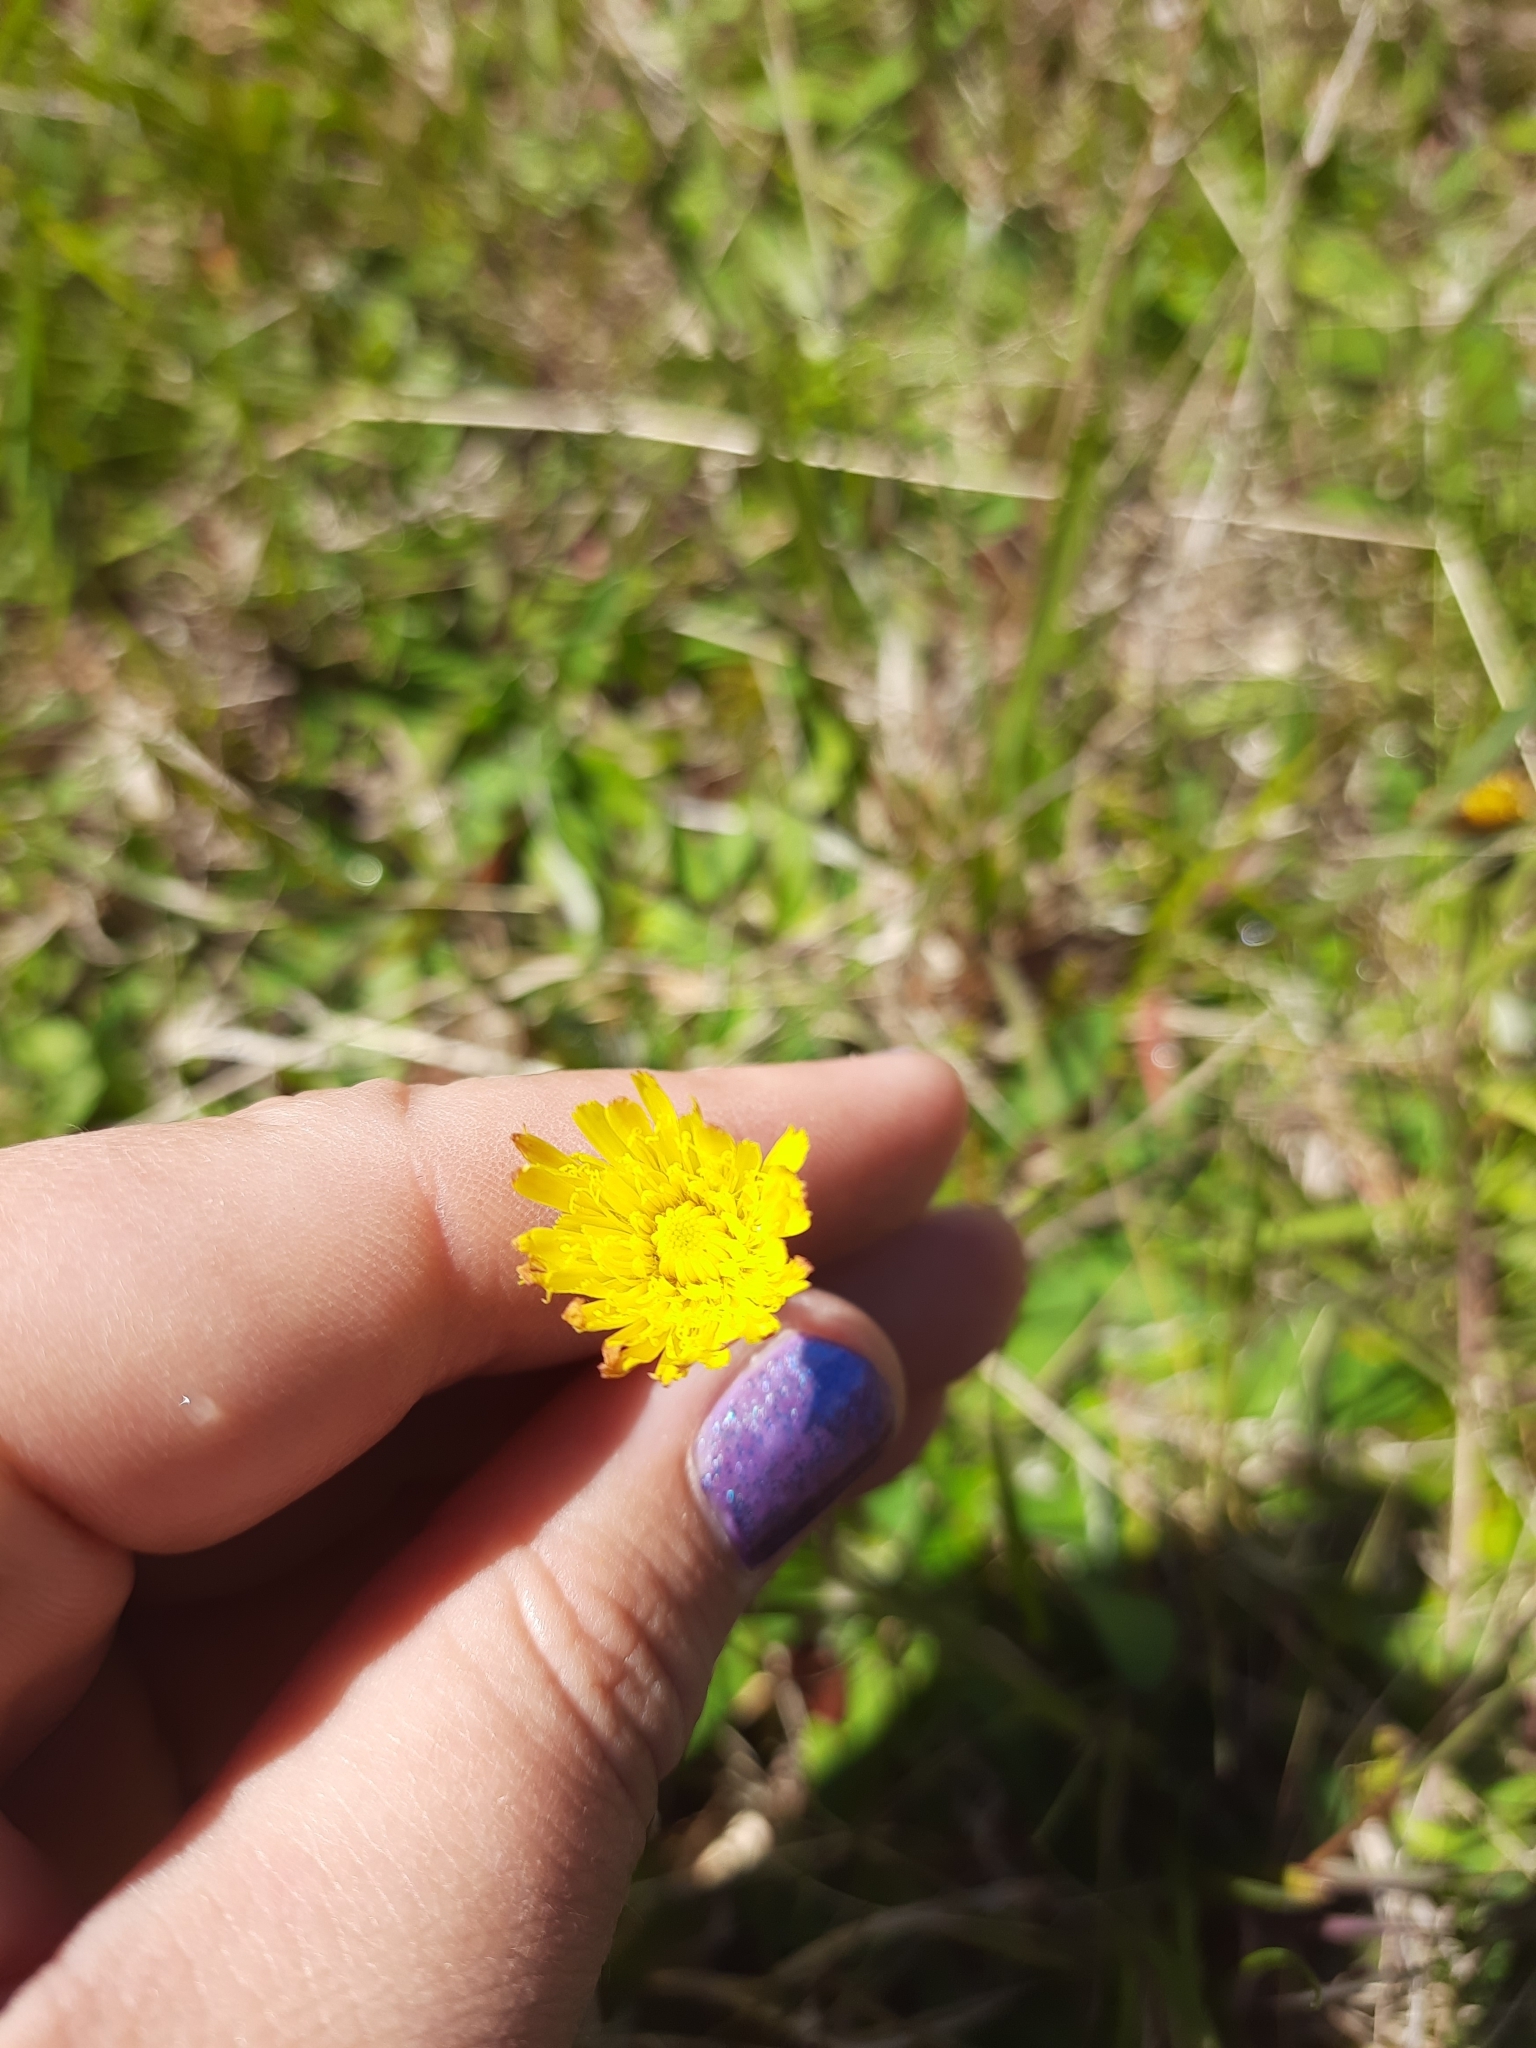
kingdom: Plantae
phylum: Tracheophyta
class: Magnoliopsida
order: Asterales
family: Asteraceae
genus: Pilosella
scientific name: Pilosella officinarum
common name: Mouse-ear hawkweed
